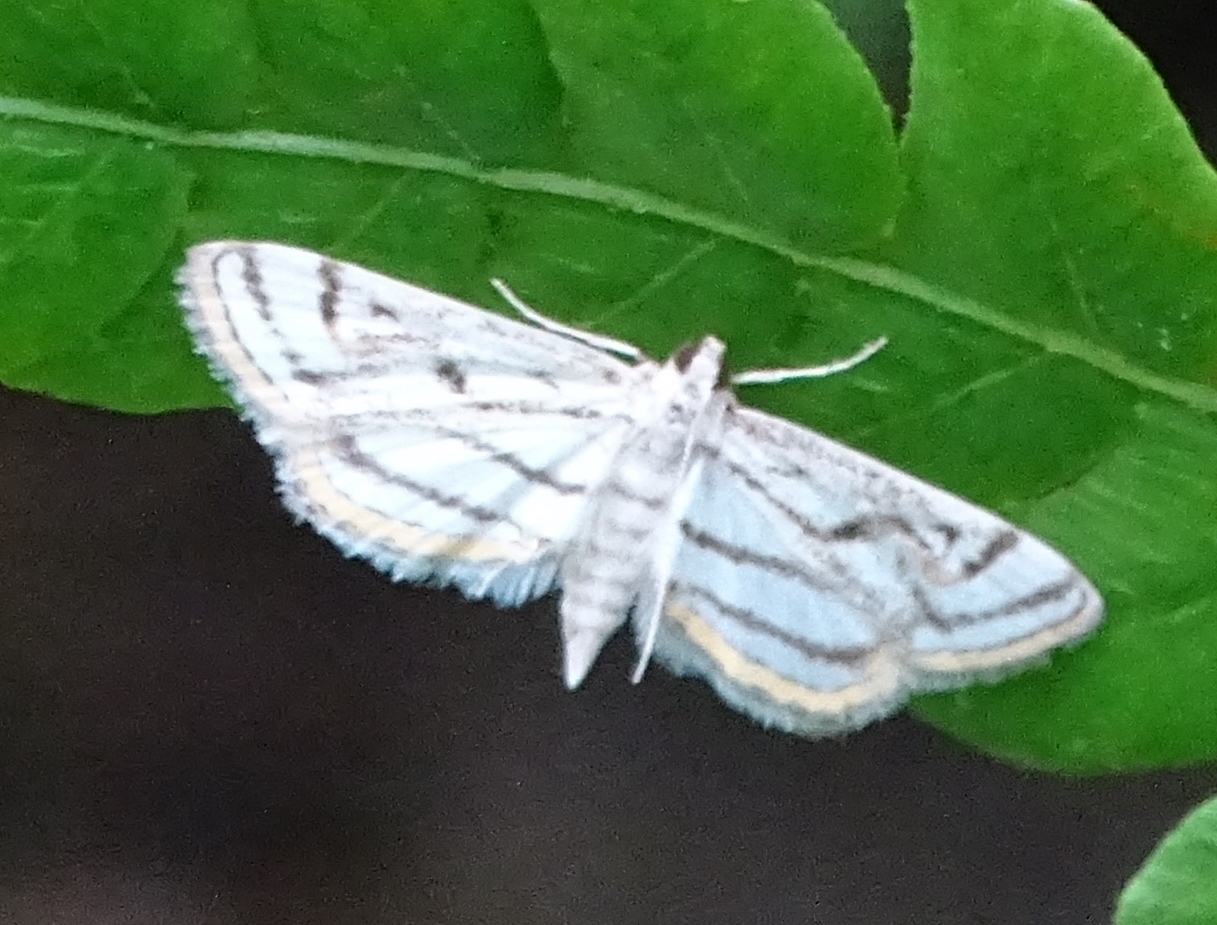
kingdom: Animalia
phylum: Arthropoda
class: Insecta
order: Lepidoptera
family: Crambidae
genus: Parapoynx
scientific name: Parapoynx badiusalis
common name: Chestnut-marked pondweed moth
